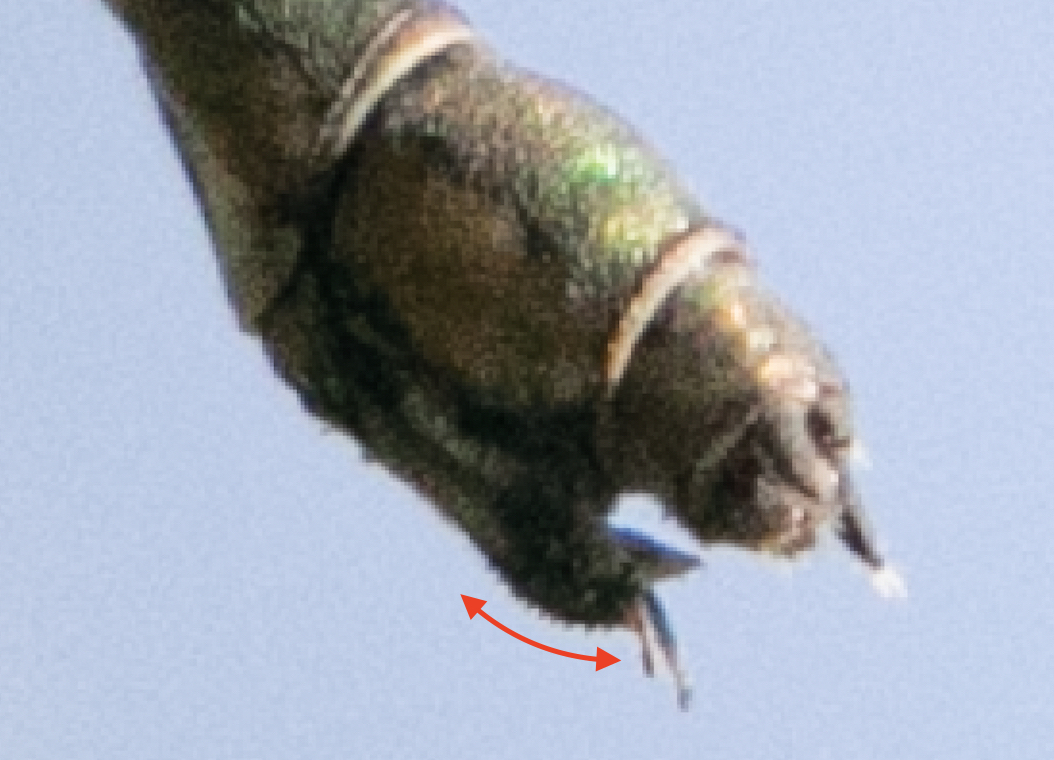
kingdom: Animalia
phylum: Arthropoda
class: Insecta
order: Odonata
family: Lestidae
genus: Chalcolestes
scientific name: Chalcolestes viridis
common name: Green emerald damselfly
